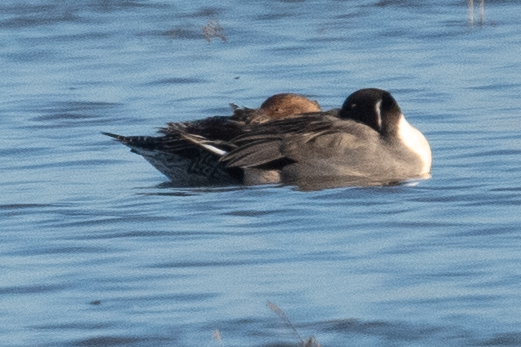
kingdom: Animalia
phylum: Chordata
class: Aves
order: Anseriformes
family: Anatidae
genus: Anas
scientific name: Anas acuta
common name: Northern pintail
